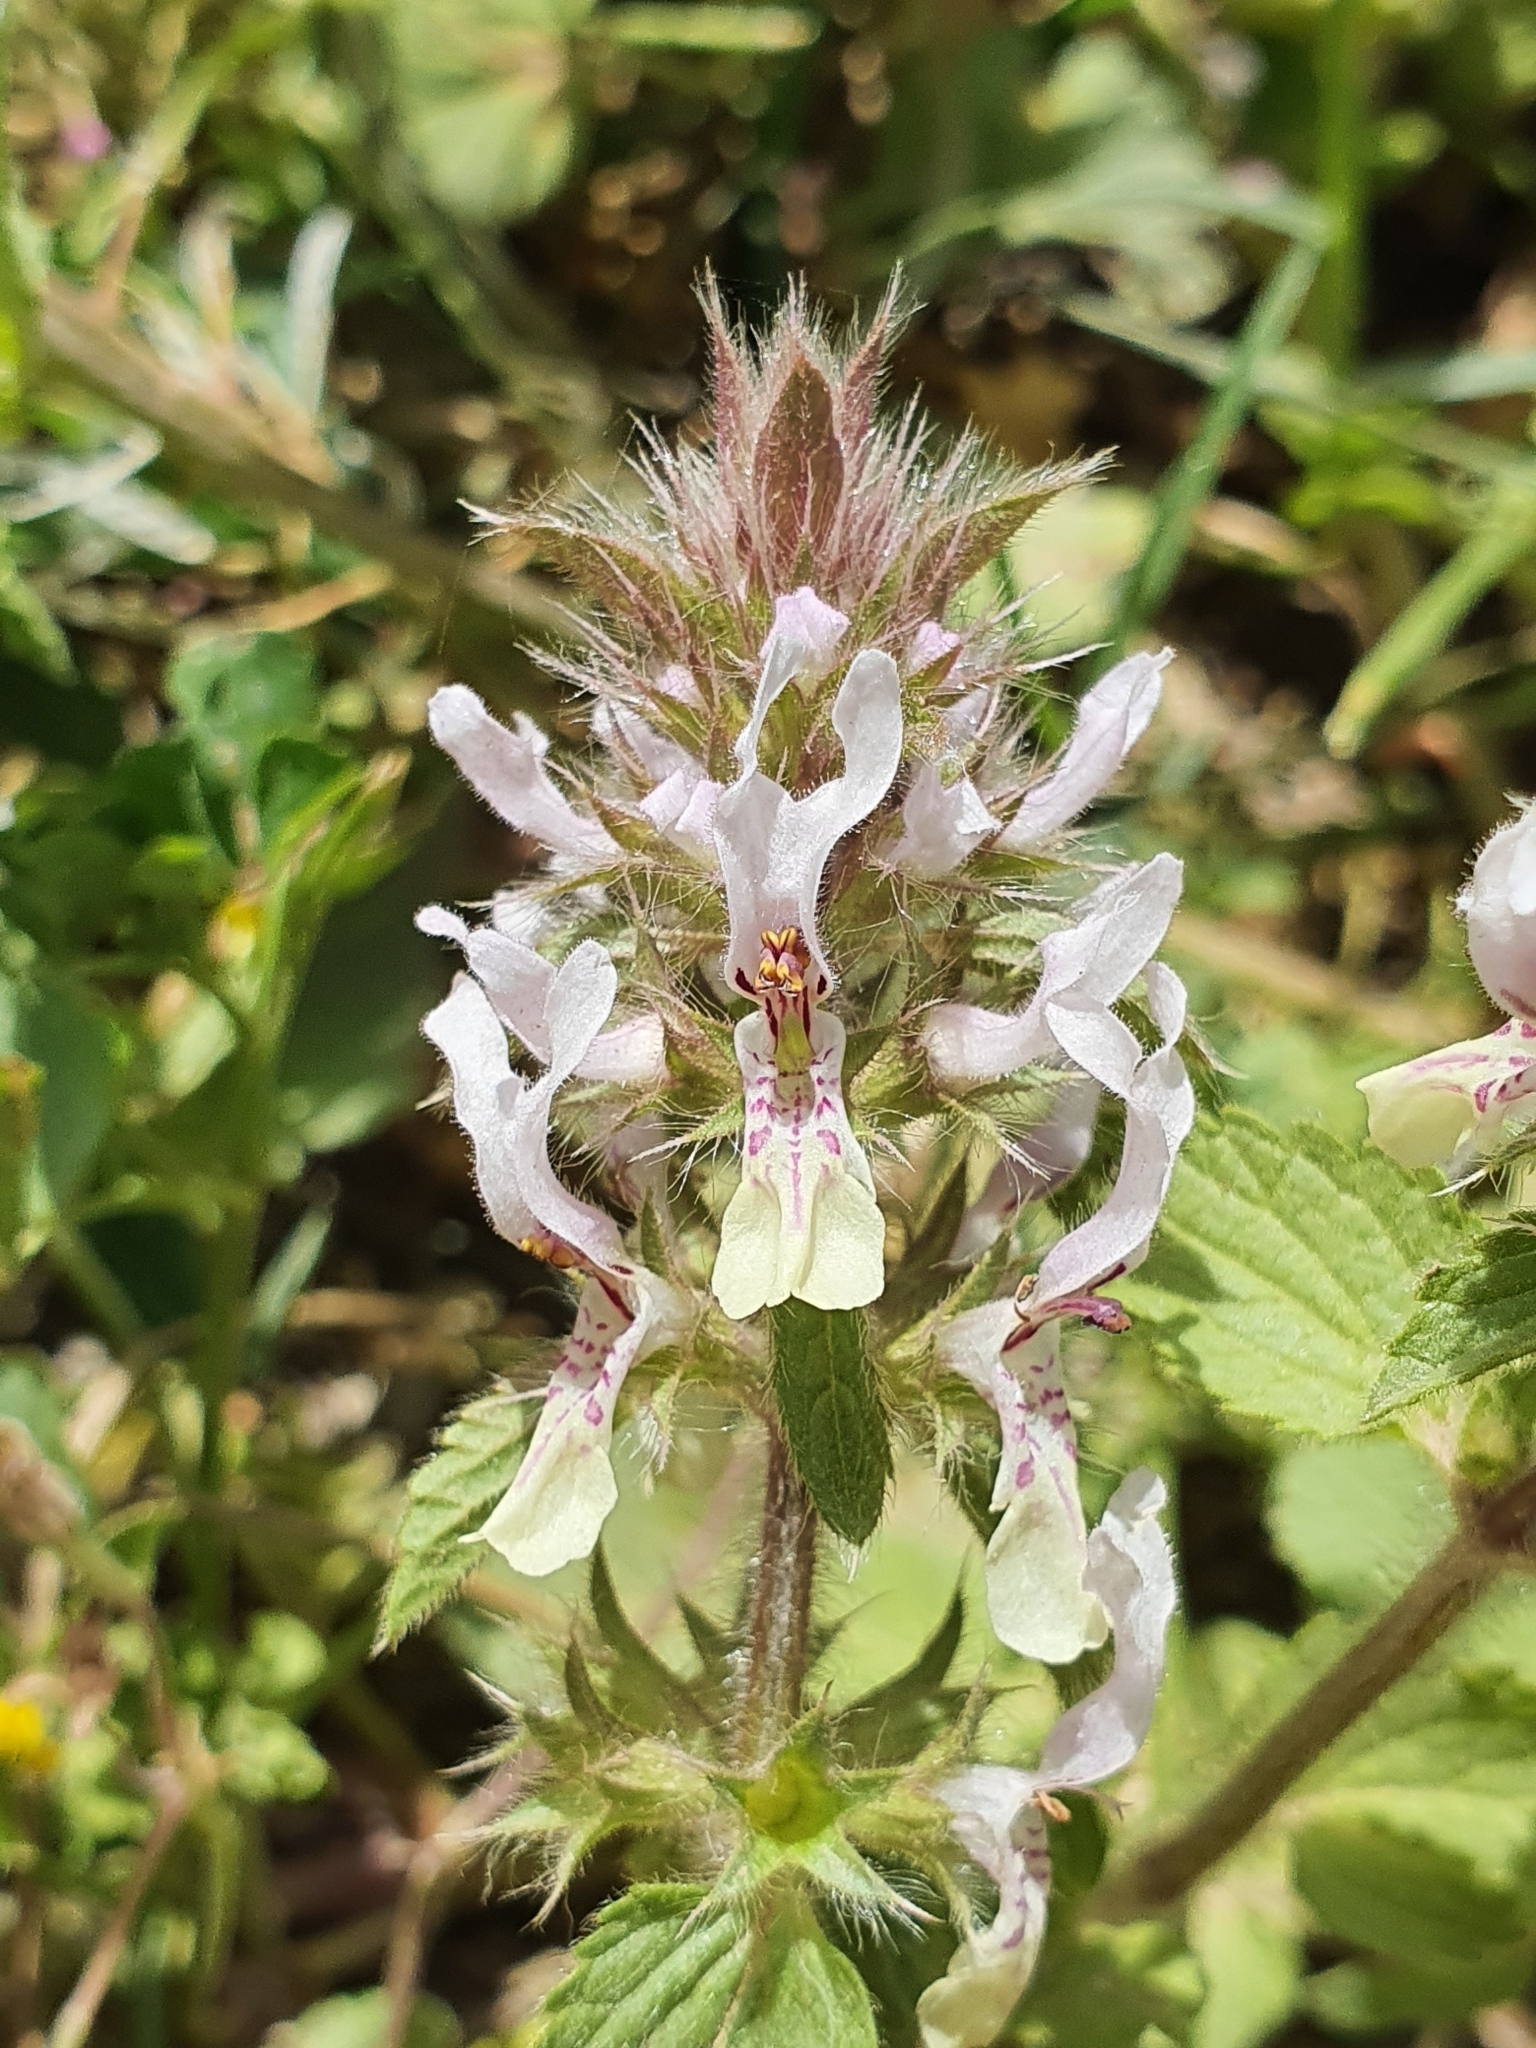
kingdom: Plantae
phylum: Tracheophyta
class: Magnoliopsida
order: Lamiales
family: Lamiaceae
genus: Stachys
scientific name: Stachys ocymastrum
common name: Italian hedgenettle
